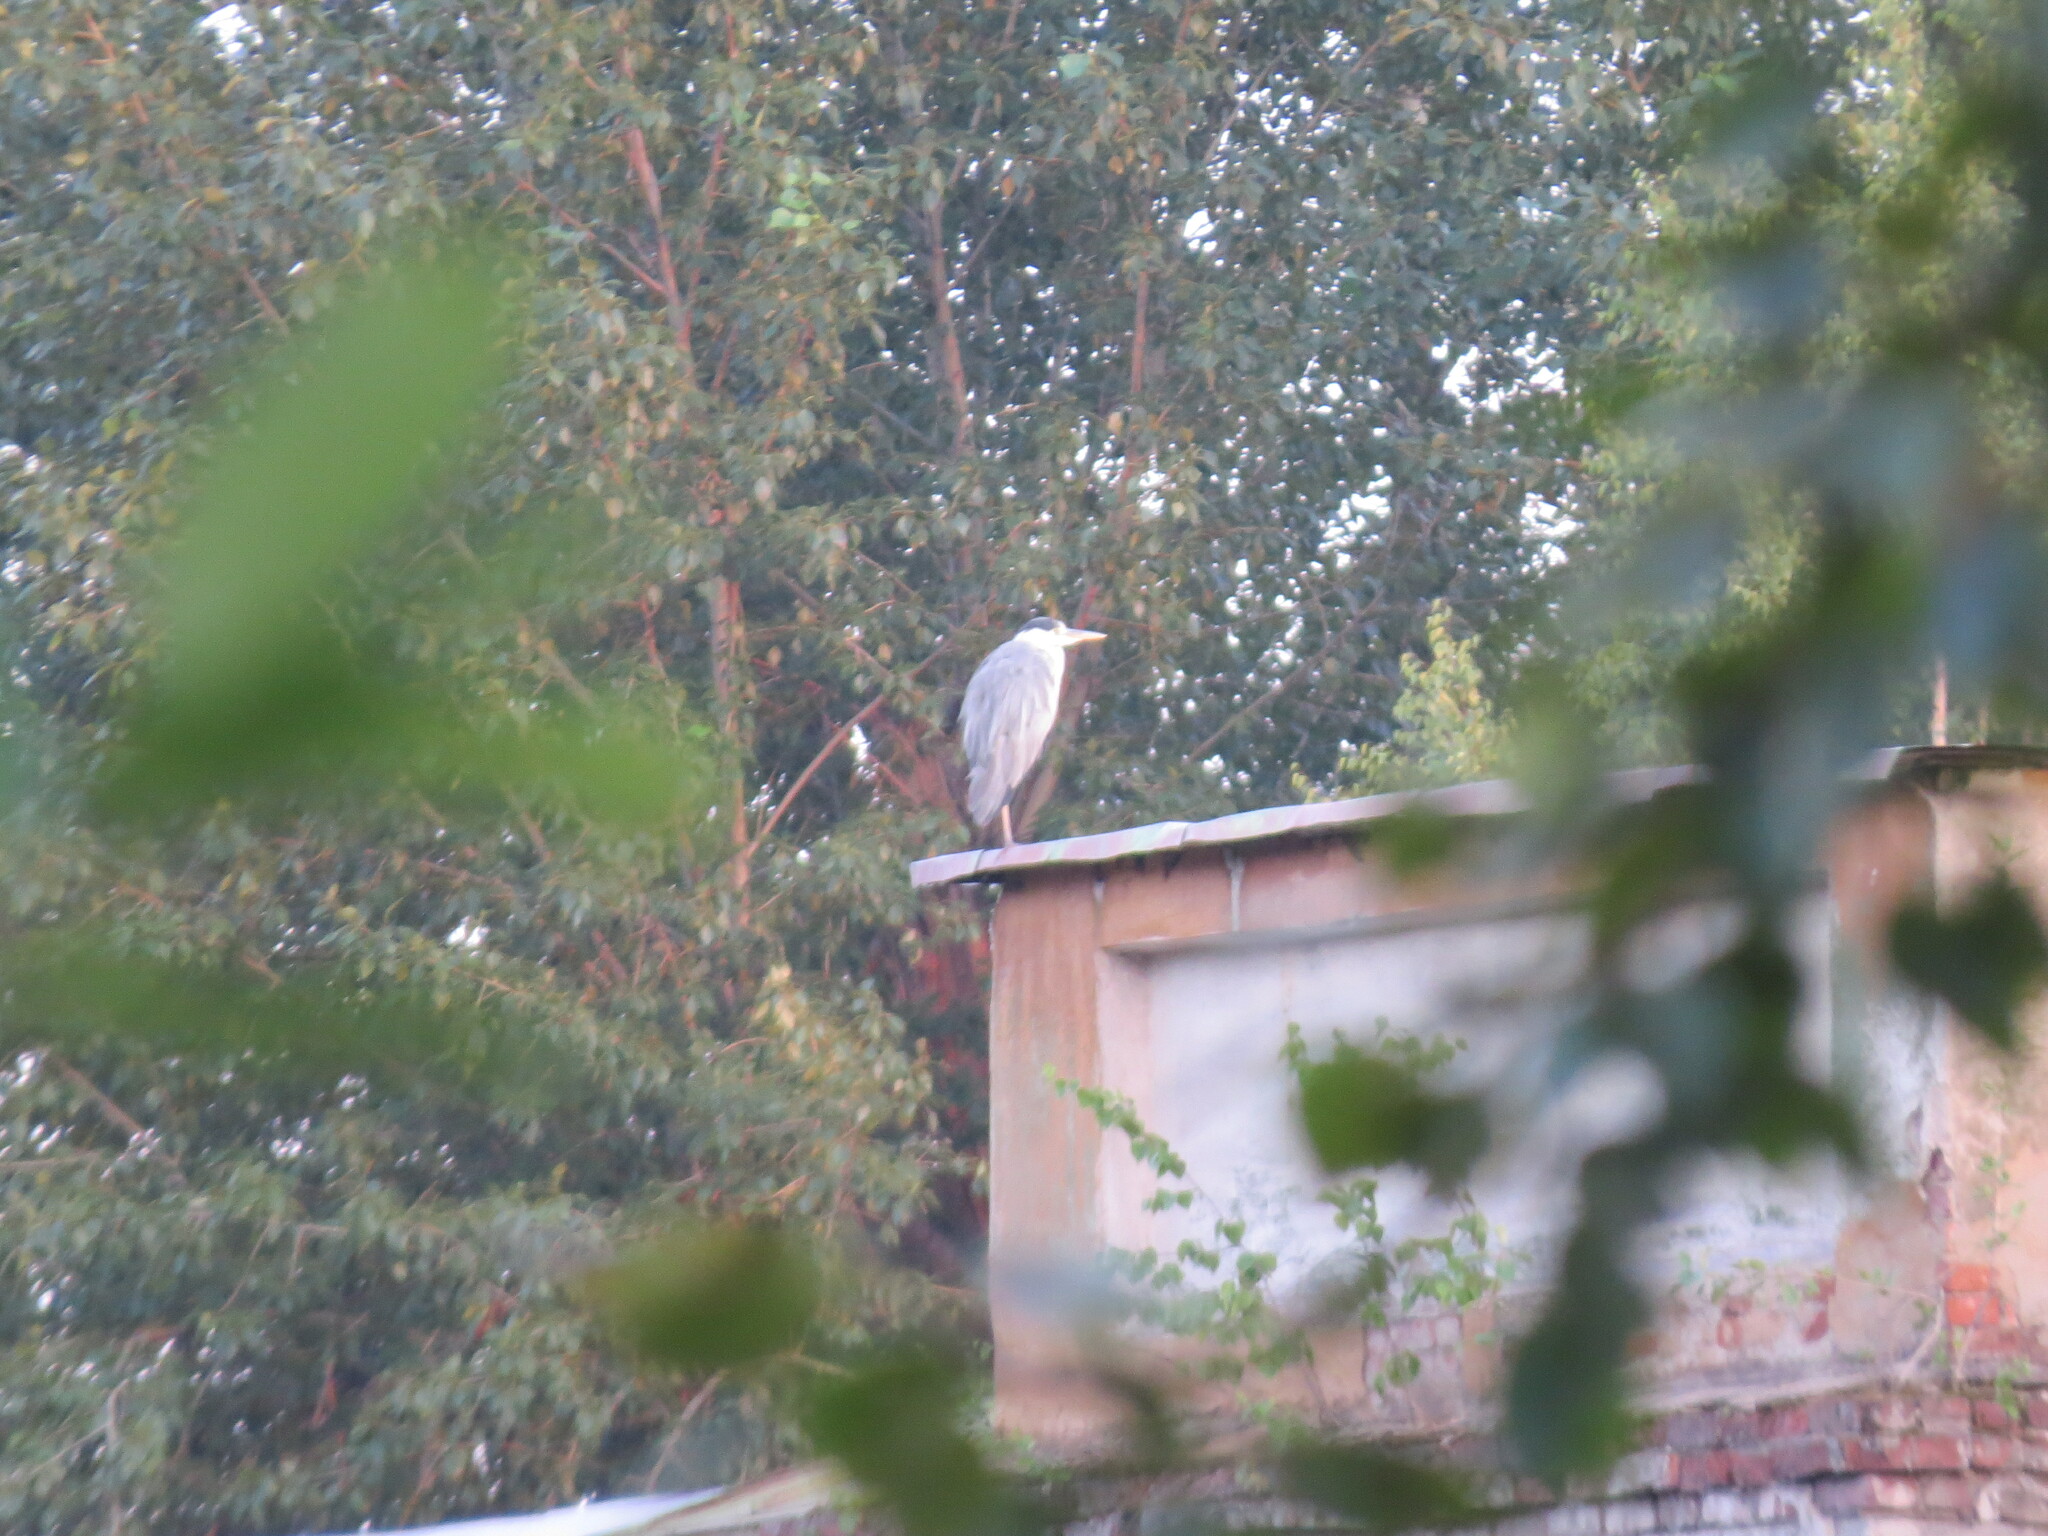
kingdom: Animalia
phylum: Chordata
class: Aves
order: Pelecaniformes
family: Ardeidae
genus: Ardea
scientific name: Ardea cinerea
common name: Grey heron
